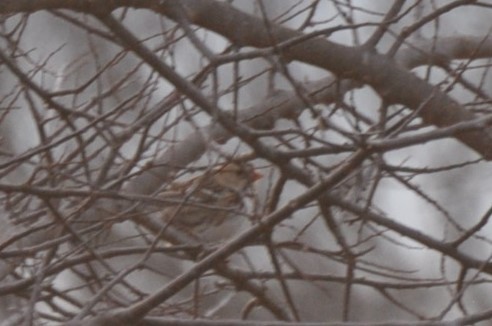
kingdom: Animalia
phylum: Chordata
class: Aves
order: Passeriformes
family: Passerellidae
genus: Zonotrichia
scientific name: Zonotrichia querula
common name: Harris's sparrow
